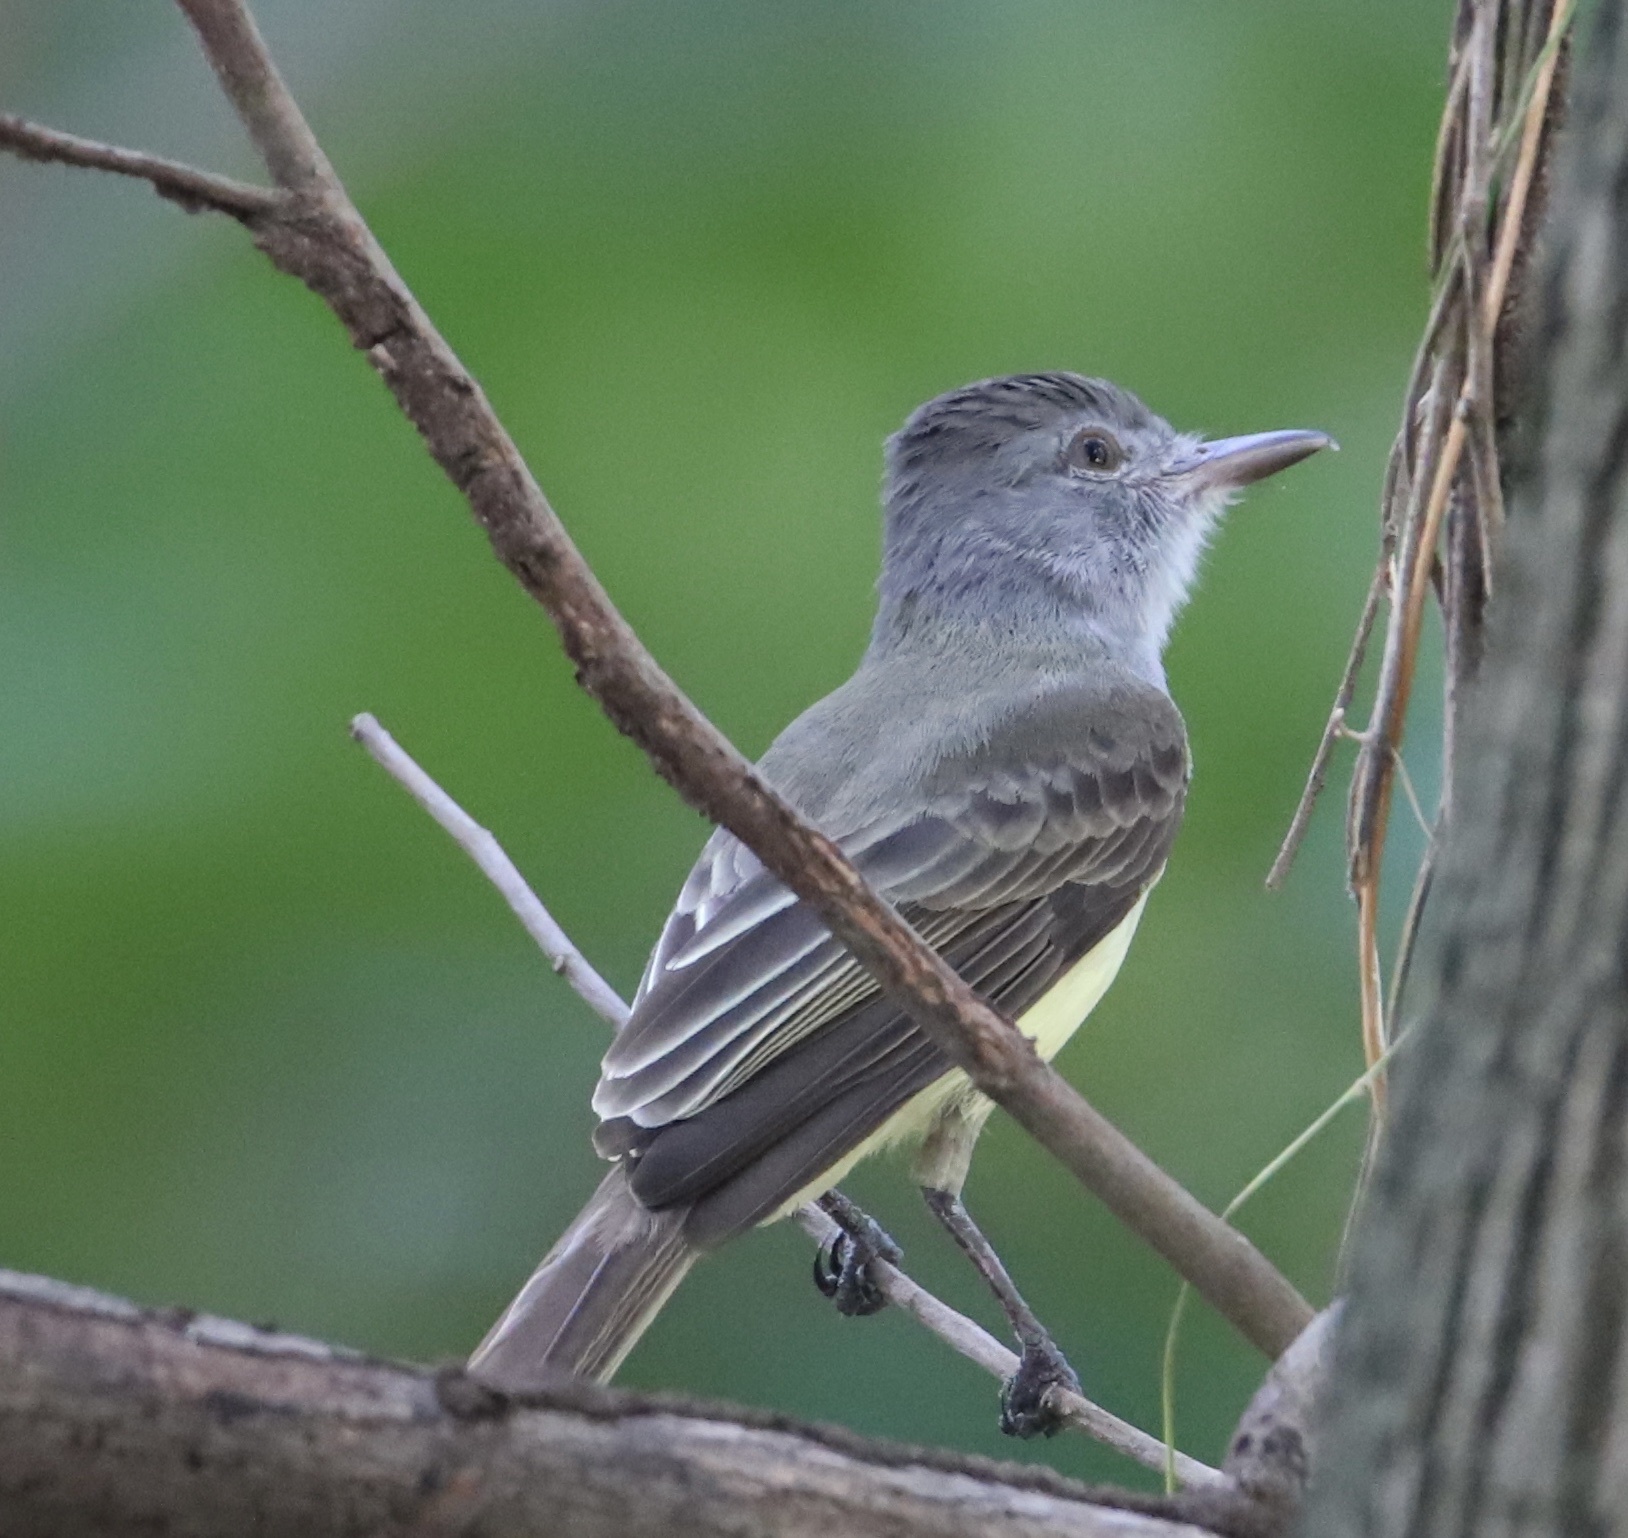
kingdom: Animalia
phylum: Chordata
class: Aves
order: Passeriformes
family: Tyrannidae
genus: Myiarchus
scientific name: Myiarchus panamensis
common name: Panama flycatcher
